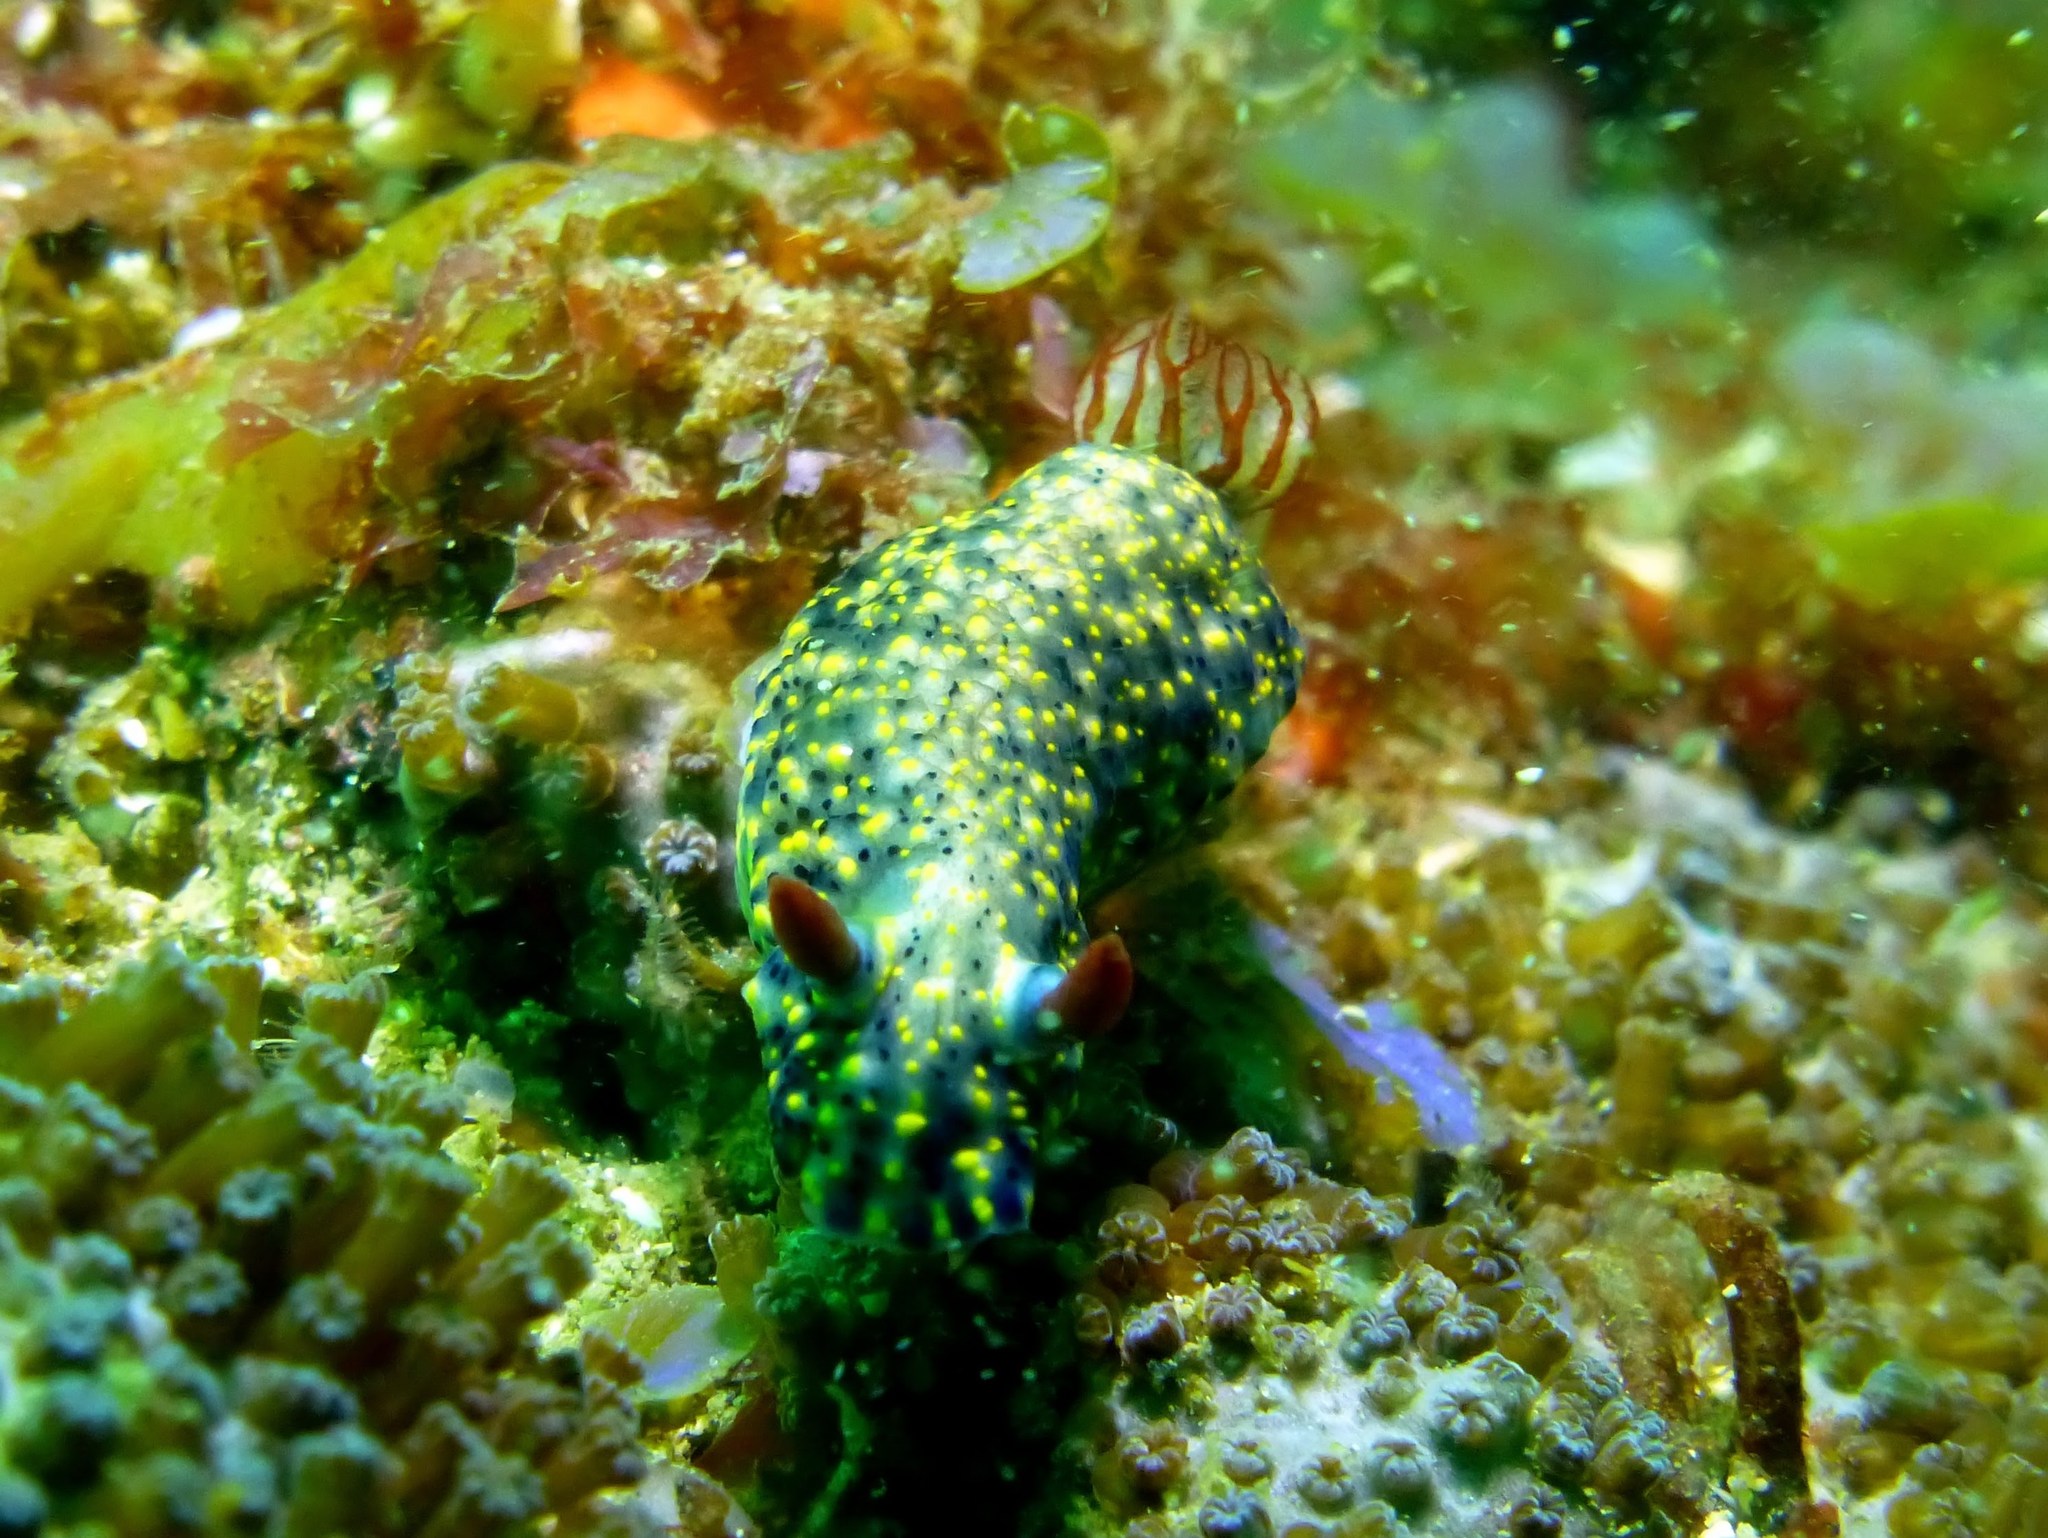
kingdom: Animalia
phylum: Mollusca
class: Gastropoda
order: Nudibranchia
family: Chromodorididae
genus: Hypselodoris
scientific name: Hypselodoris infucata
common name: Mottled dorid
